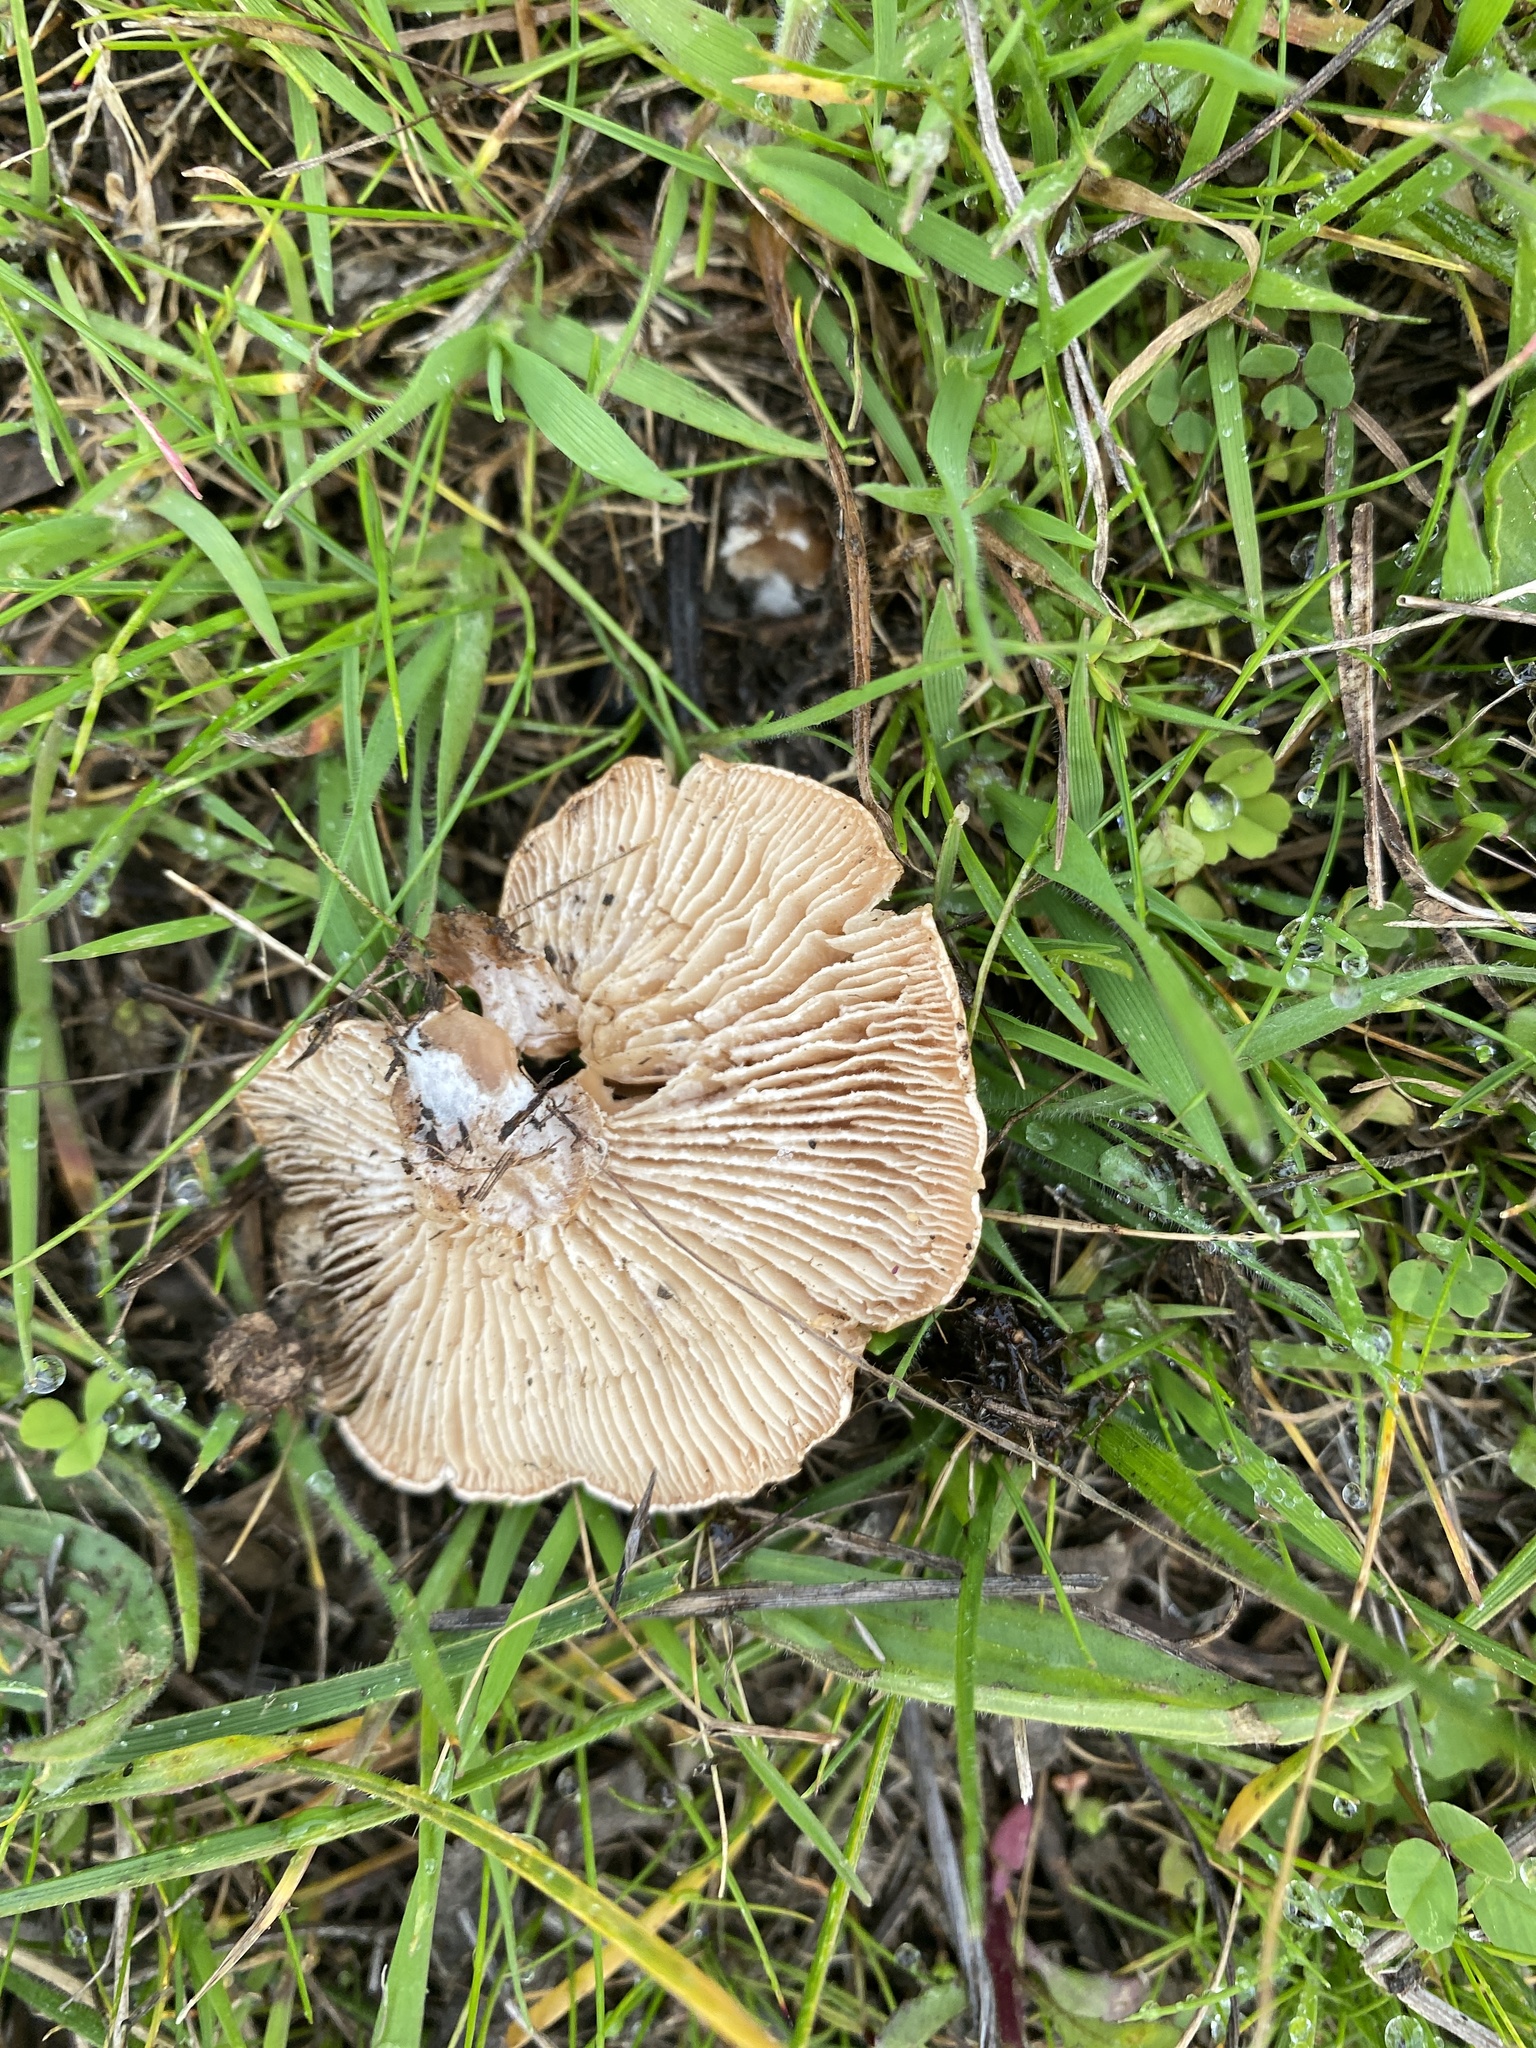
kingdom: Fungi
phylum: Basidiomycota
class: Agaricomycetes
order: Agaricales
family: Hymenogastraceae
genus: Hebeloma
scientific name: Hebeloma leucosarx
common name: Birch poisonpie
